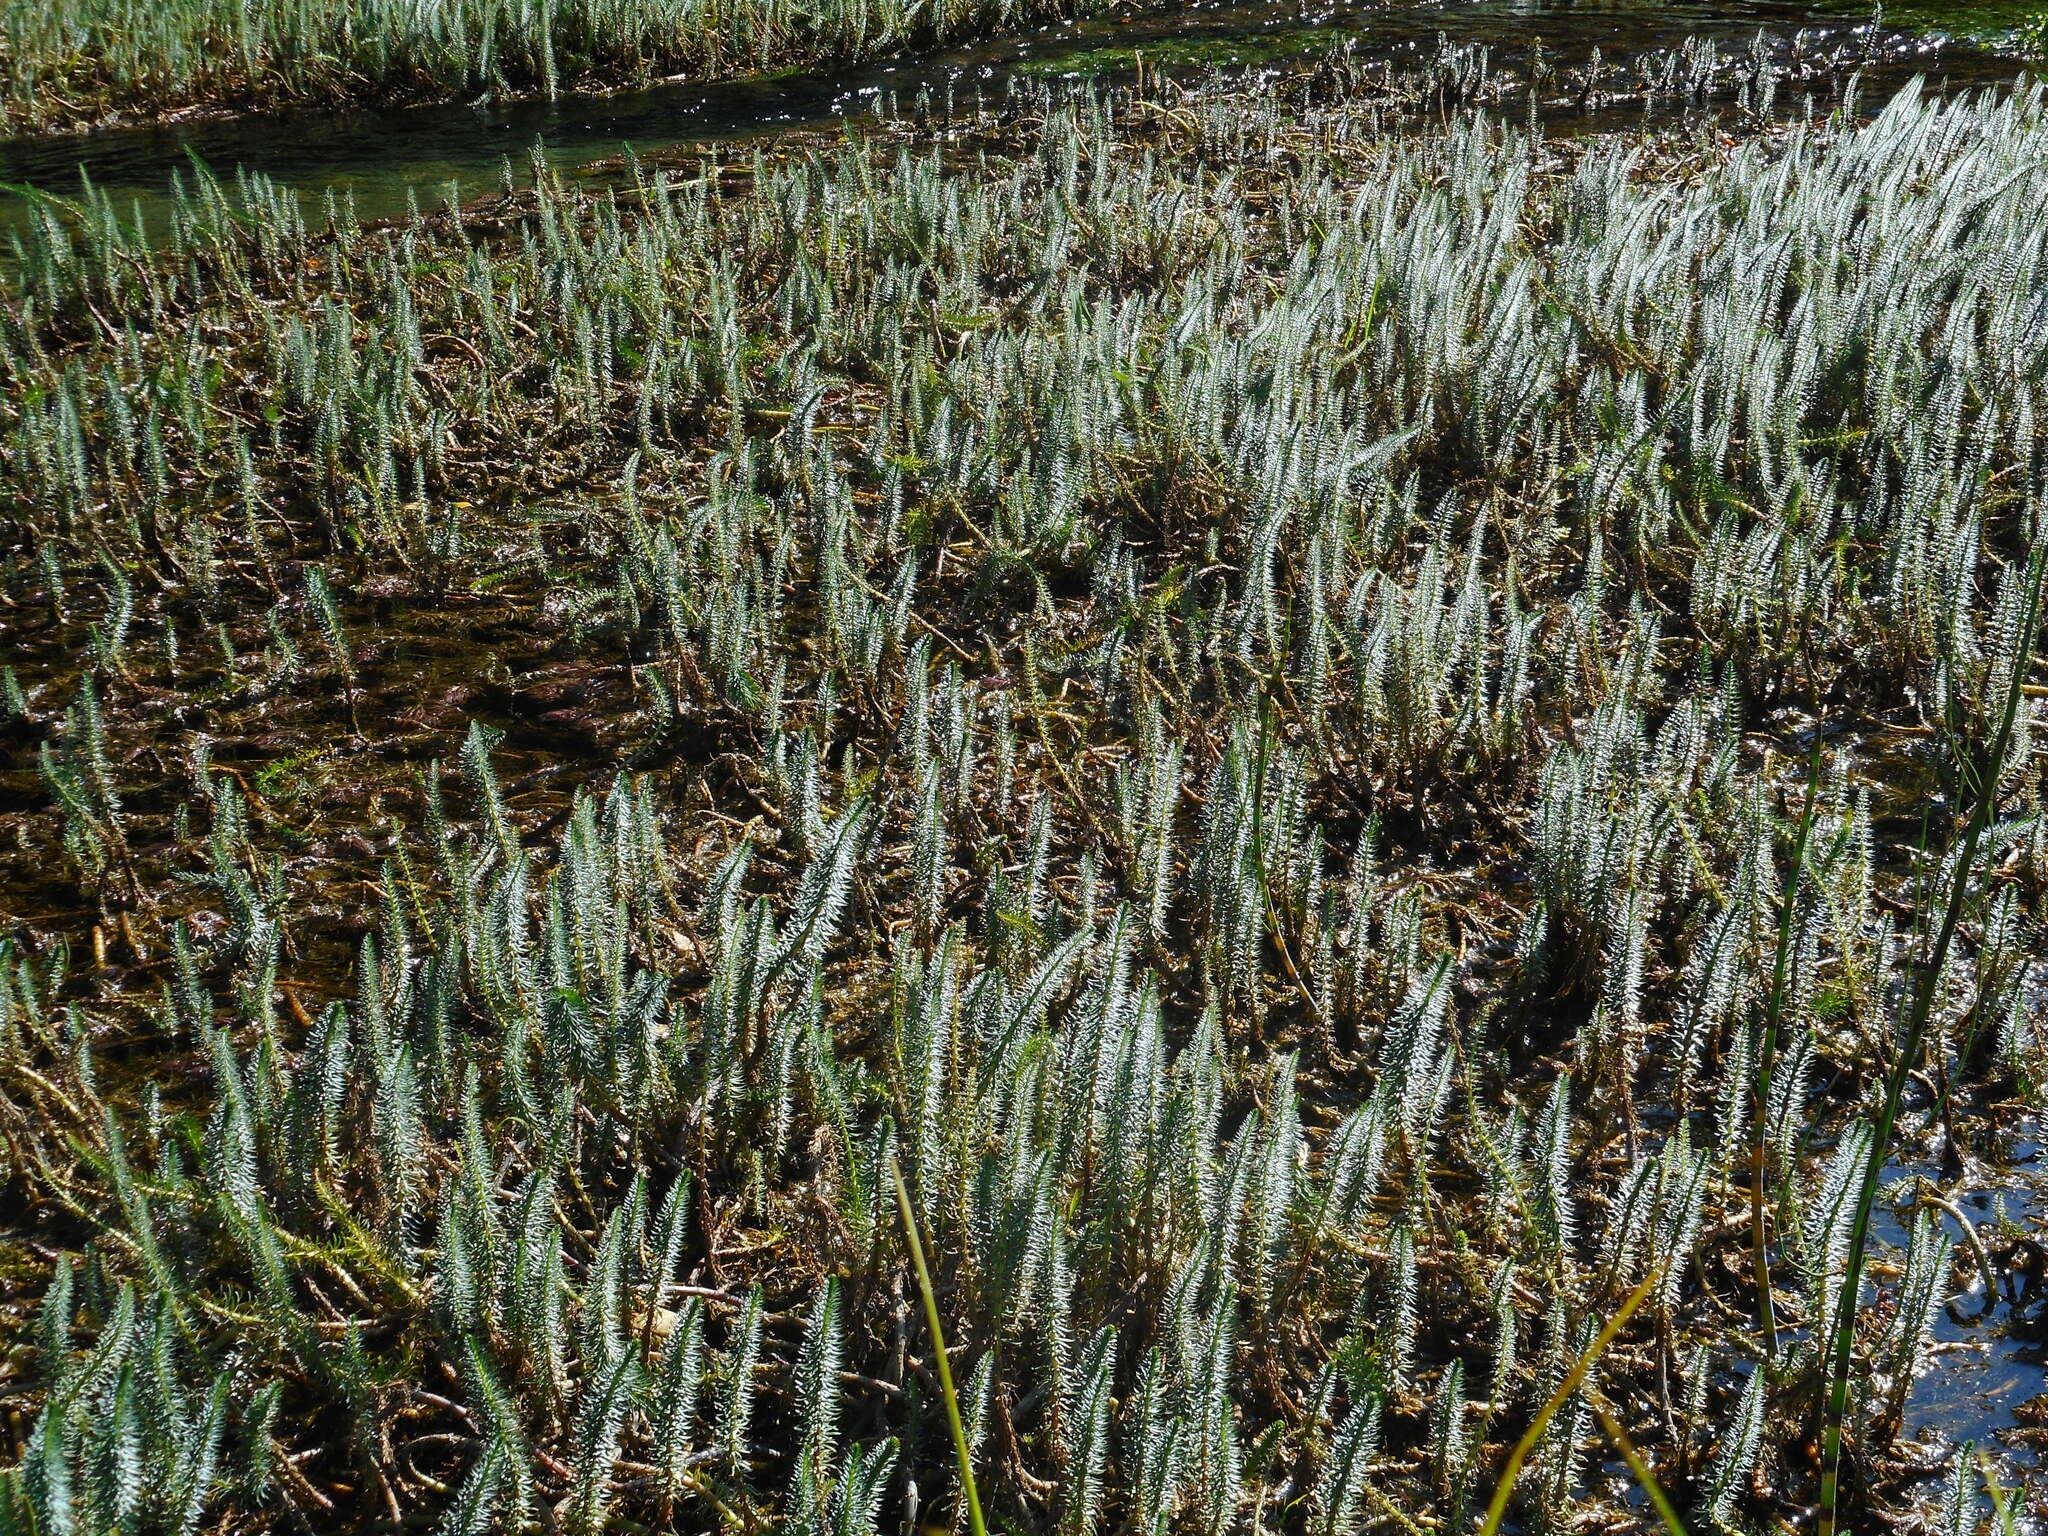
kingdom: Plantae
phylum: Tracheophyta
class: Magnoliopsida
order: Lamiales
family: Plantaginaceae
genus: Hippuris
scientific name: Hippuris vulgaris
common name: Mare's-tail
